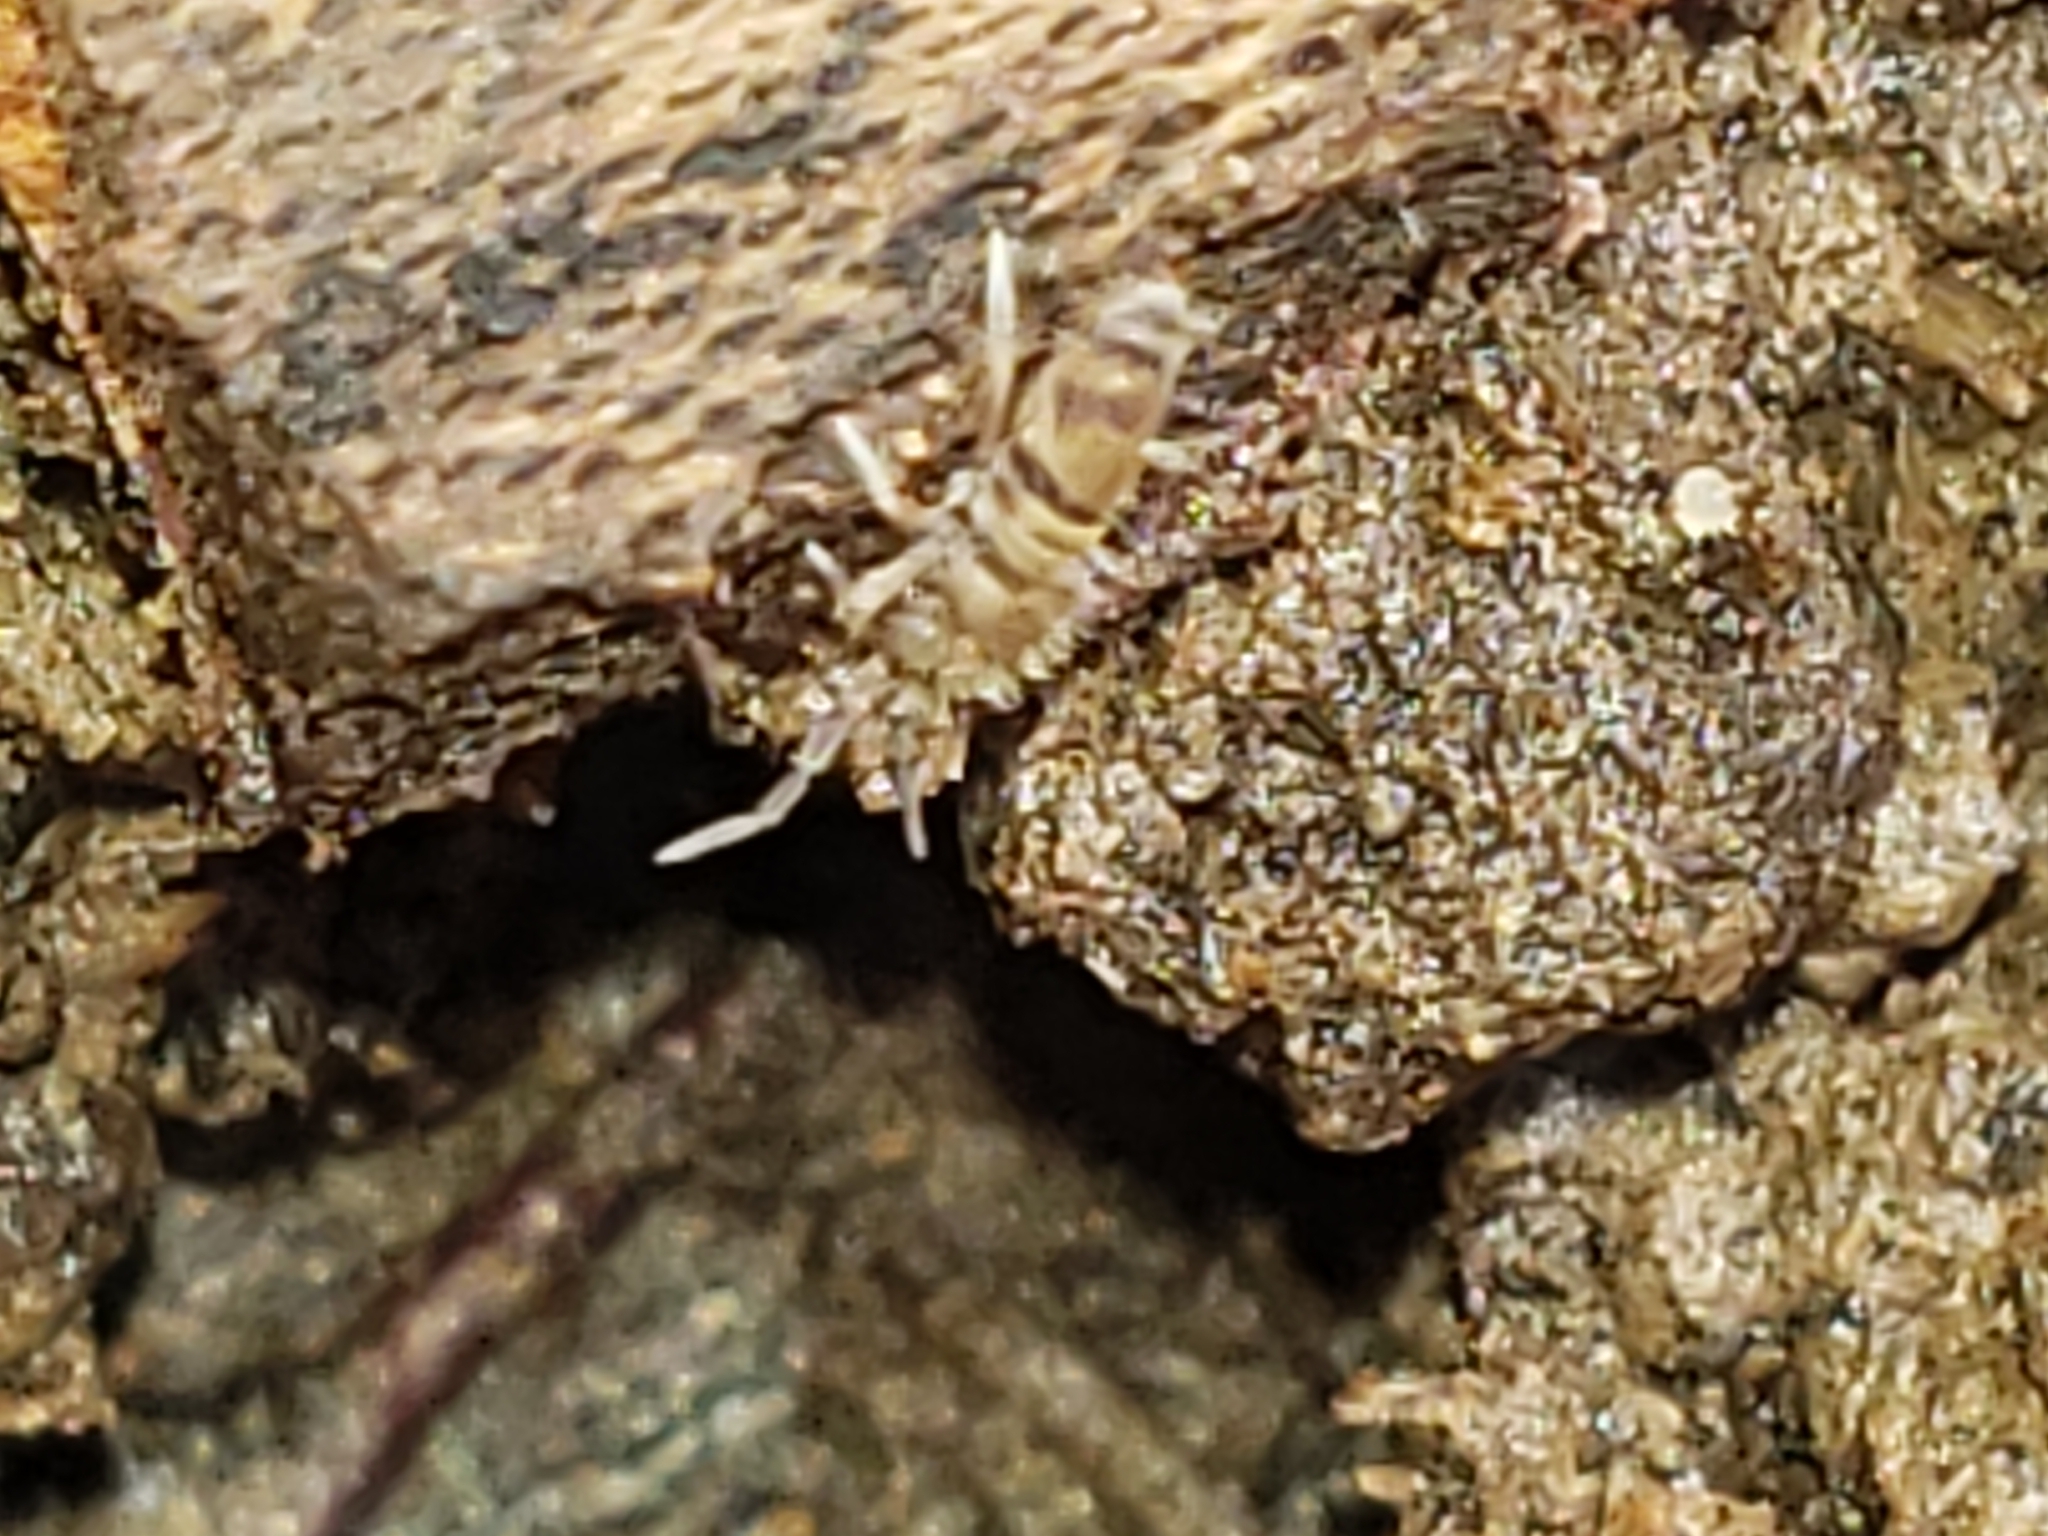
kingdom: Animalia
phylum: Arthropoda
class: Collembola
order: Entomobryomorpha
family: Entomobryidae
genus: Homidia
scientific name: Homidia sauteri
